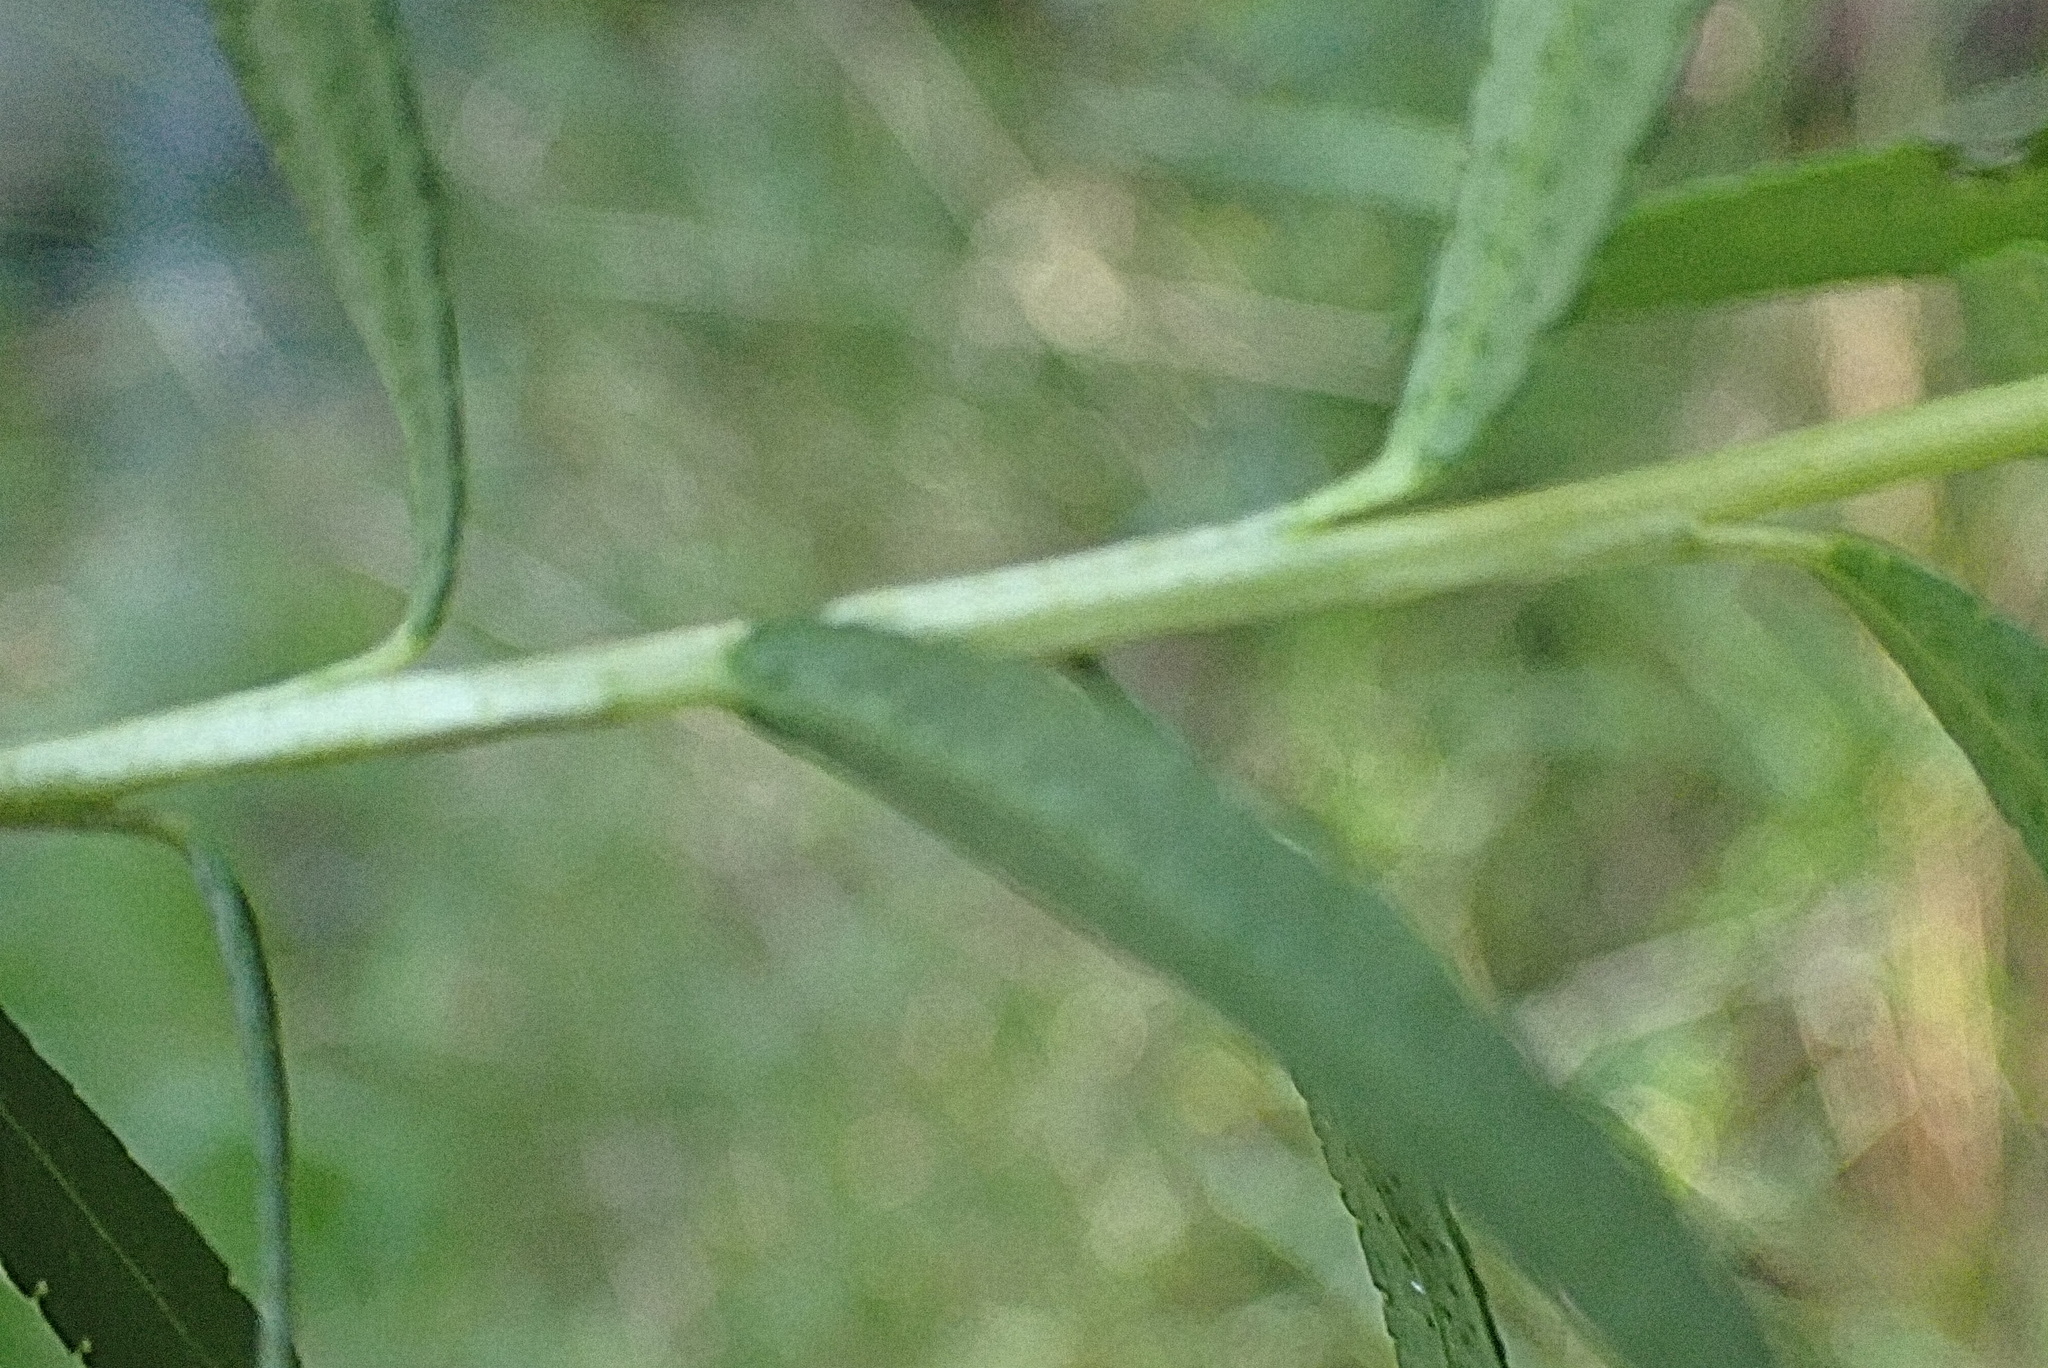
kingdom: Plantae
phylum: Tracheophyta
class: Magnoliopsida
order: Sapindales
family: Rutaceae
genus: Empleurum
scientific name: Empleurum unicapsulare
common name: False buchu
